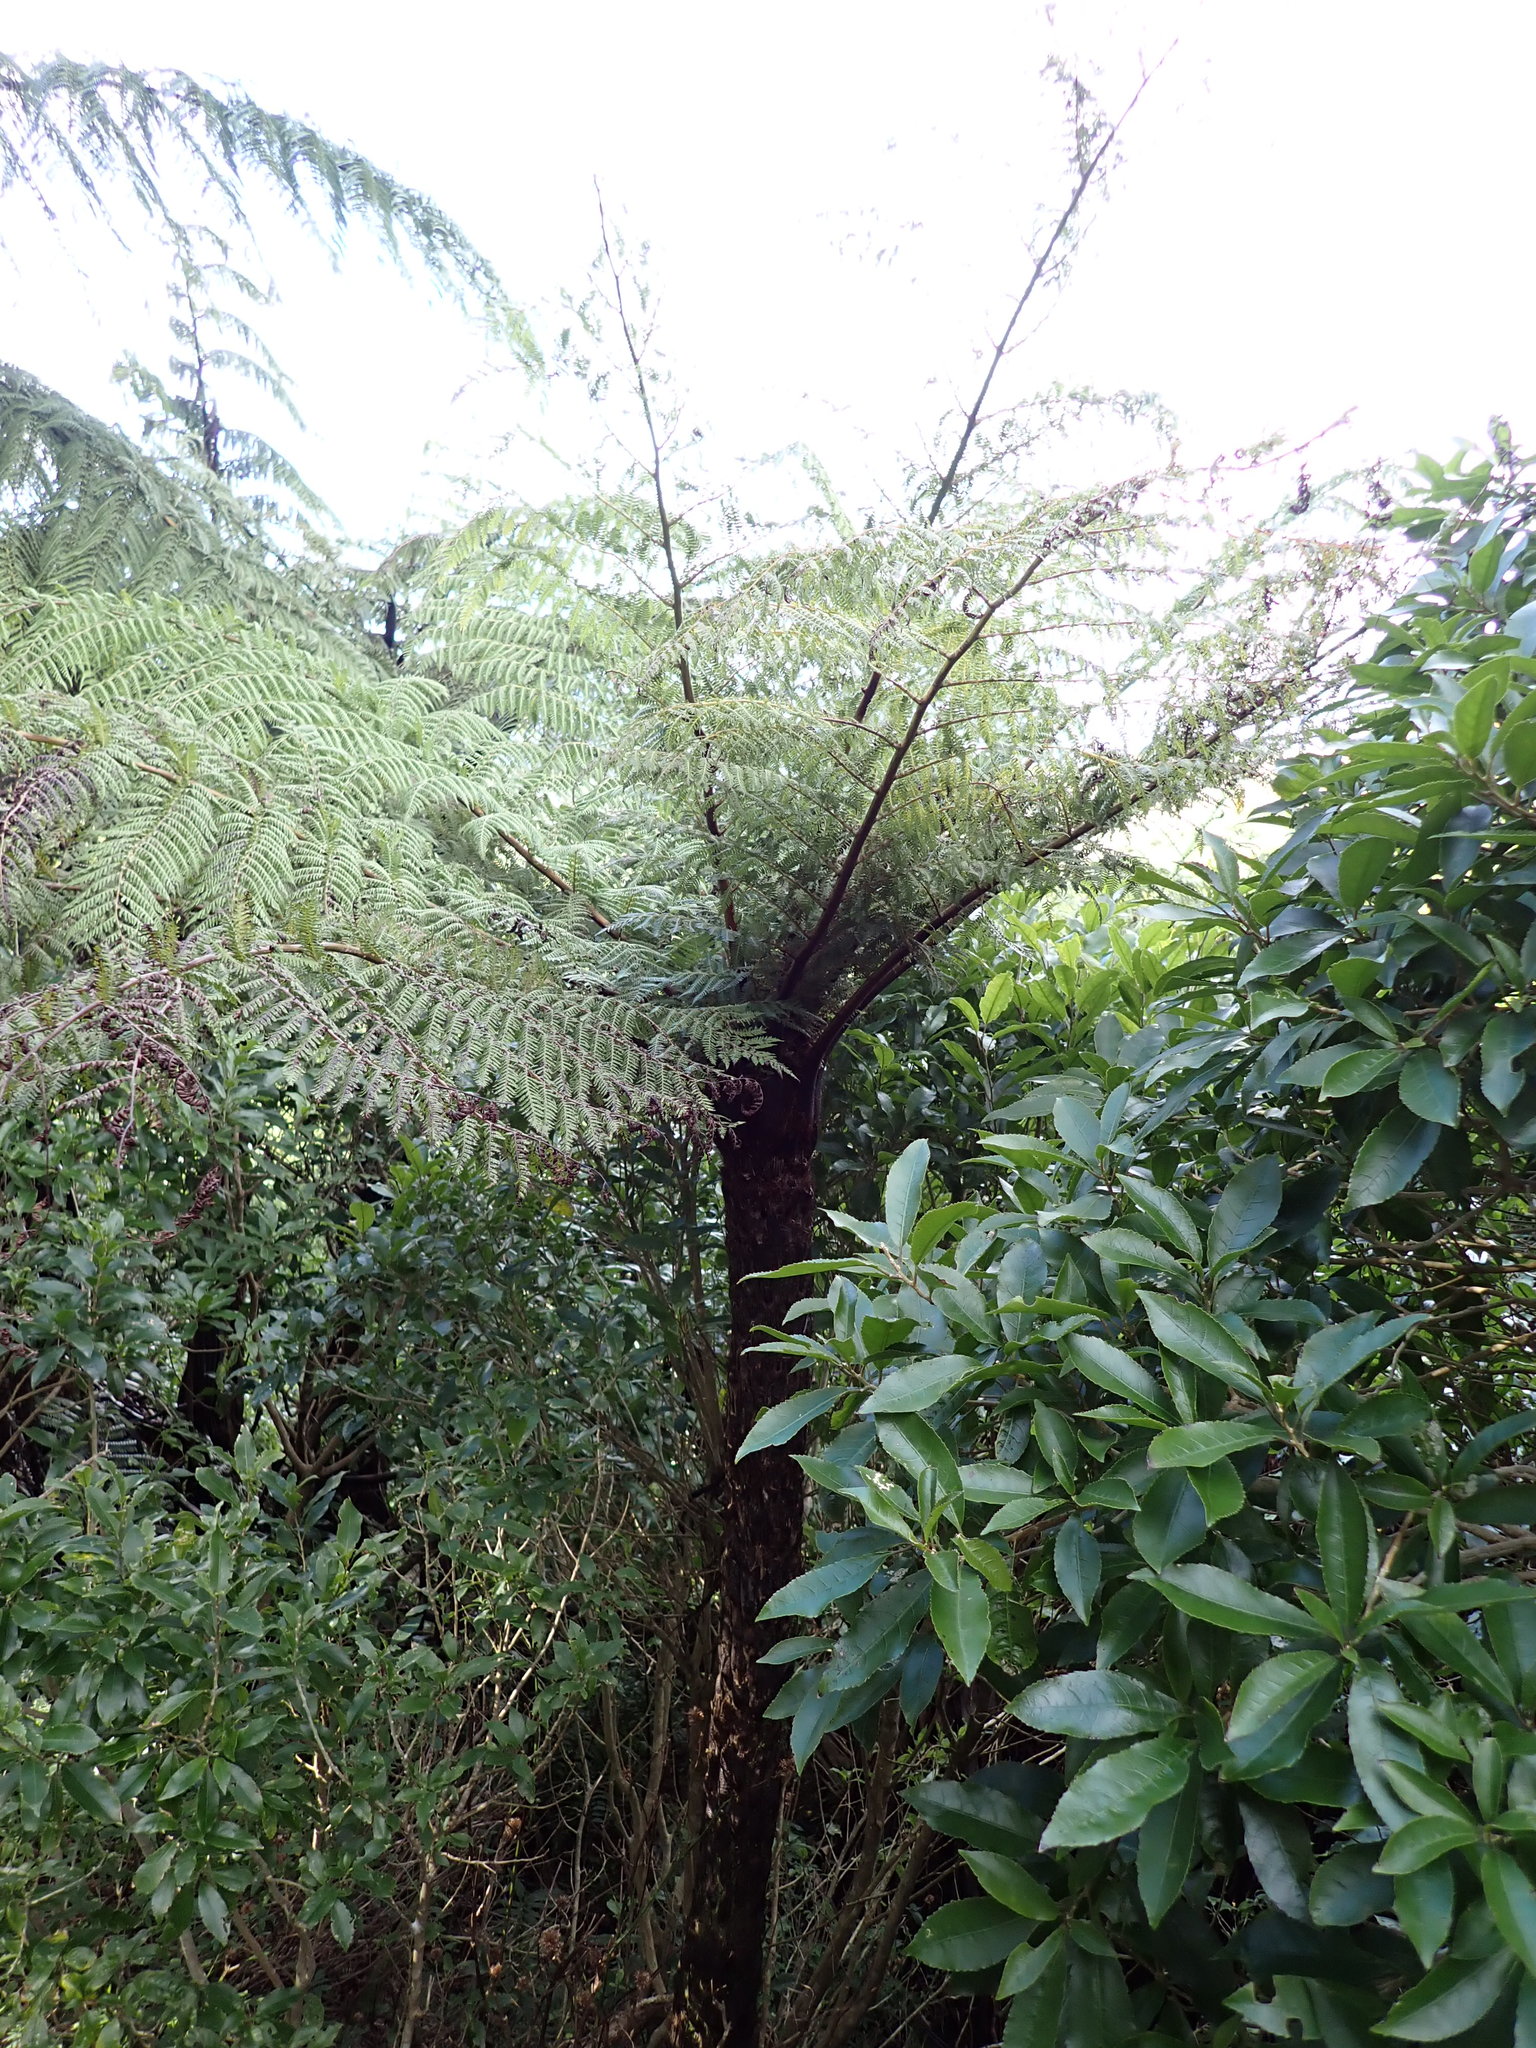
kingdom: Plantae
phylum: Tracheophyta
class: Polypodiopsida
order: Cyatheales
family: Cyatheaceae
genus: Cyathea
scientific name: Cyathea cunninghamii
